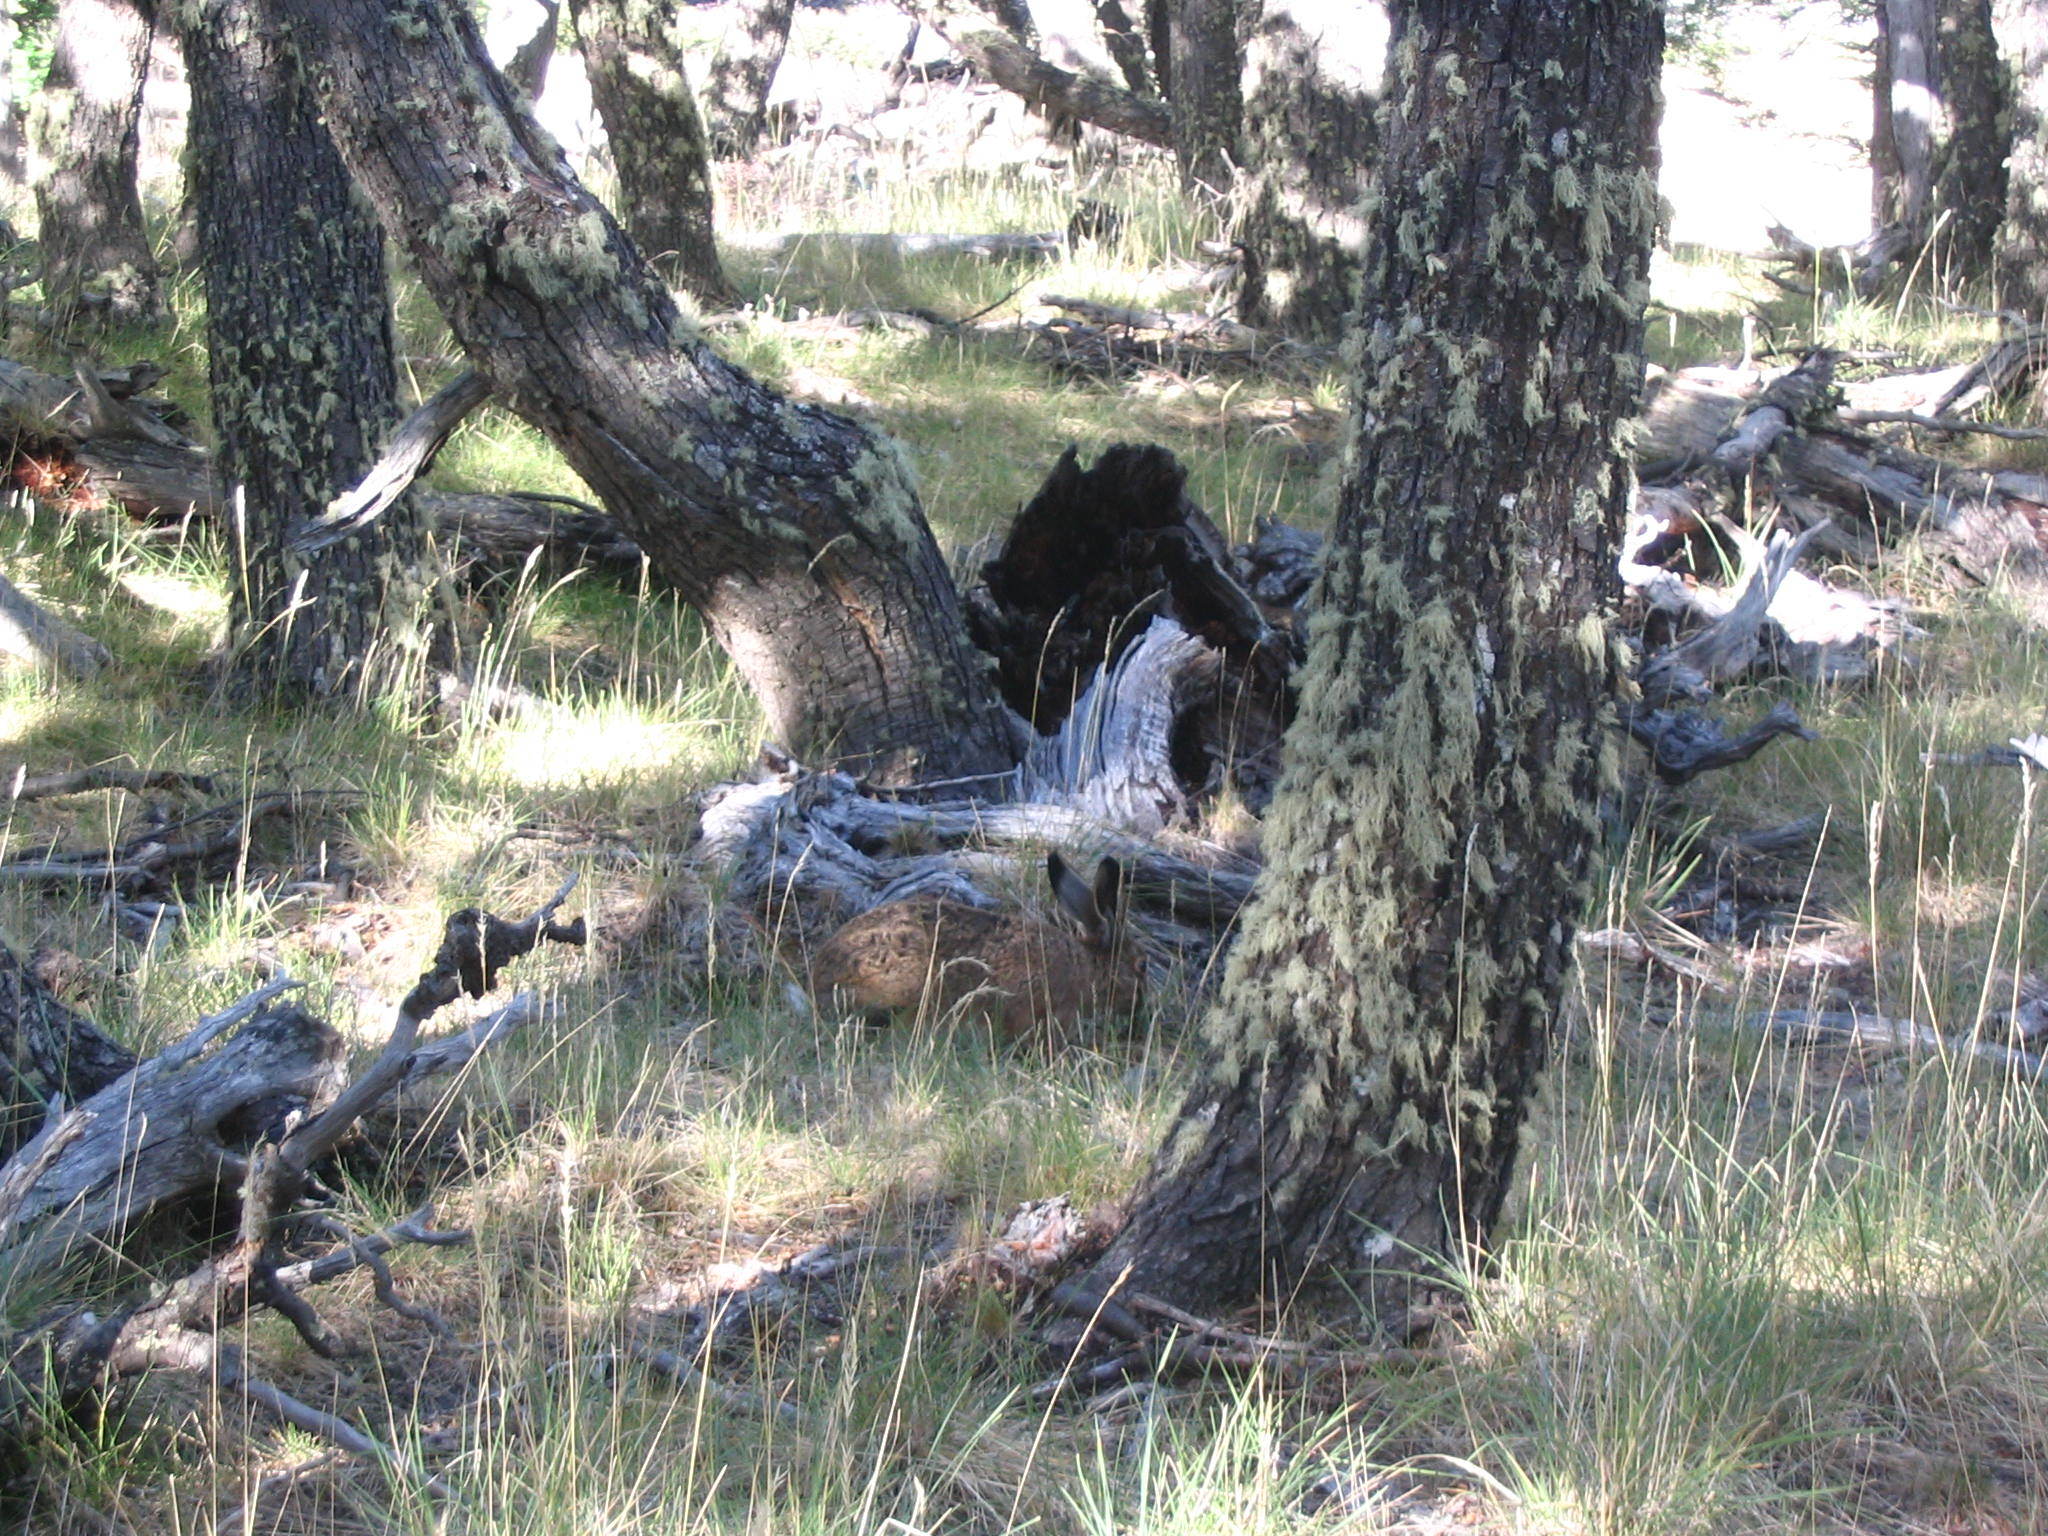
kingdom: Animalia
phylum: Chordata
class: Mammalia
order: Lagomorpha
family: Leporidae
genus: Lepus
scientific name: Lepus europaeus
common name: European hare
